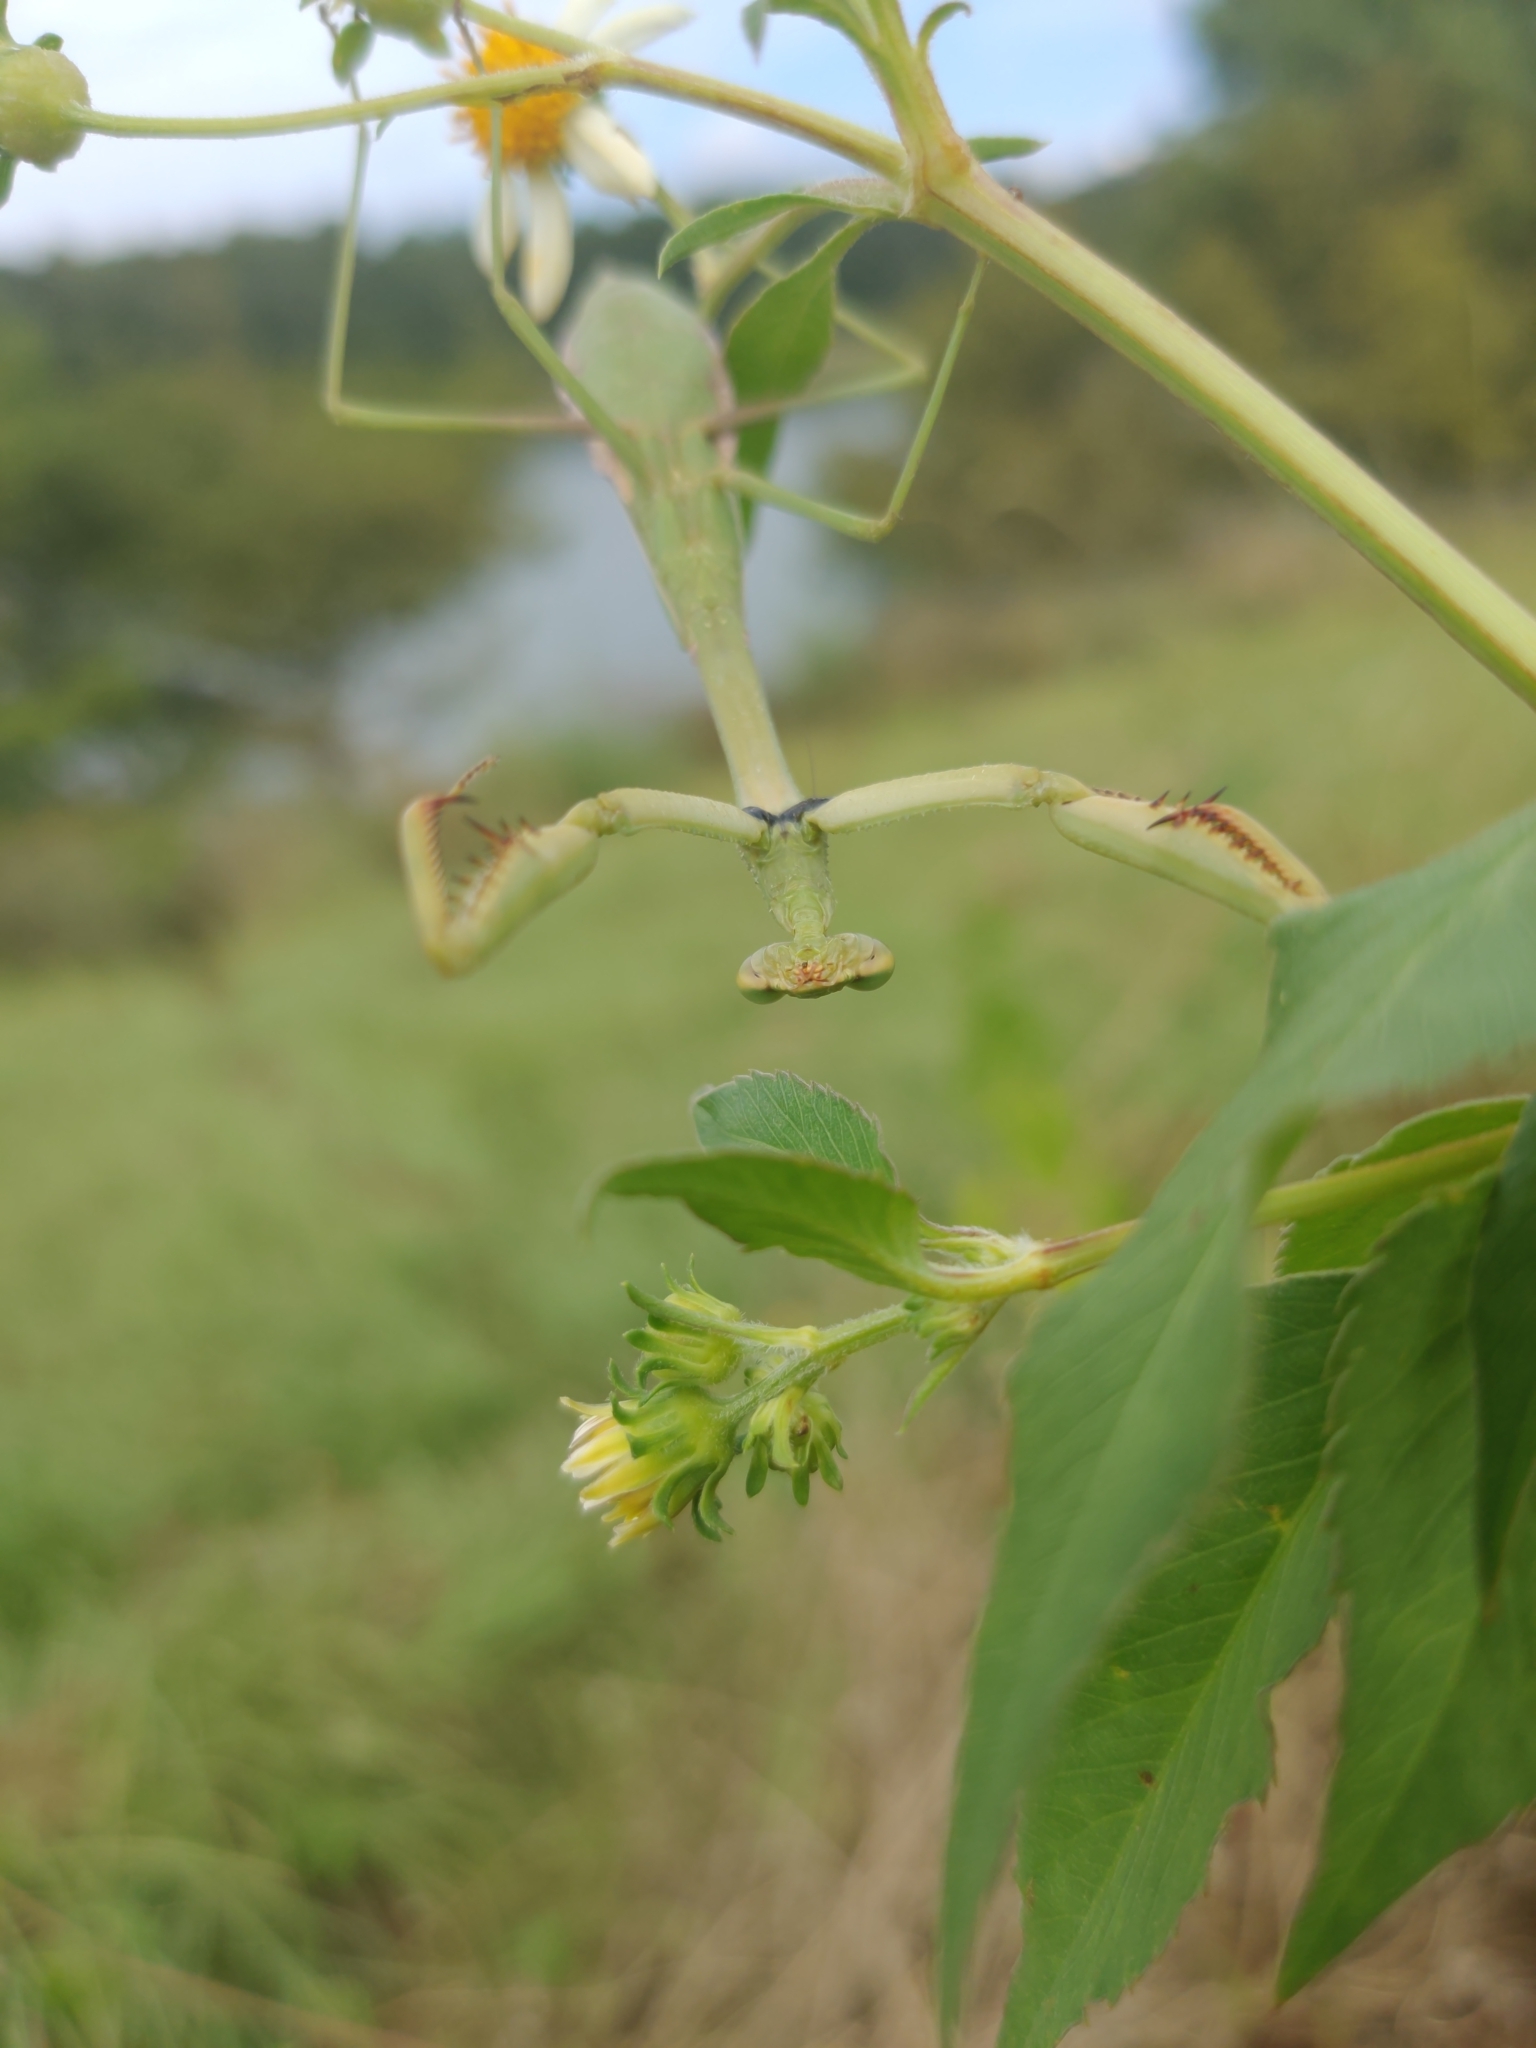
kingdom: Animalia
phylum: Arthropoda
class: Insecta
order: Mantodea
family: Mantidae
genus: Stagmomantis
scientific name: Stagmomantis carolina
